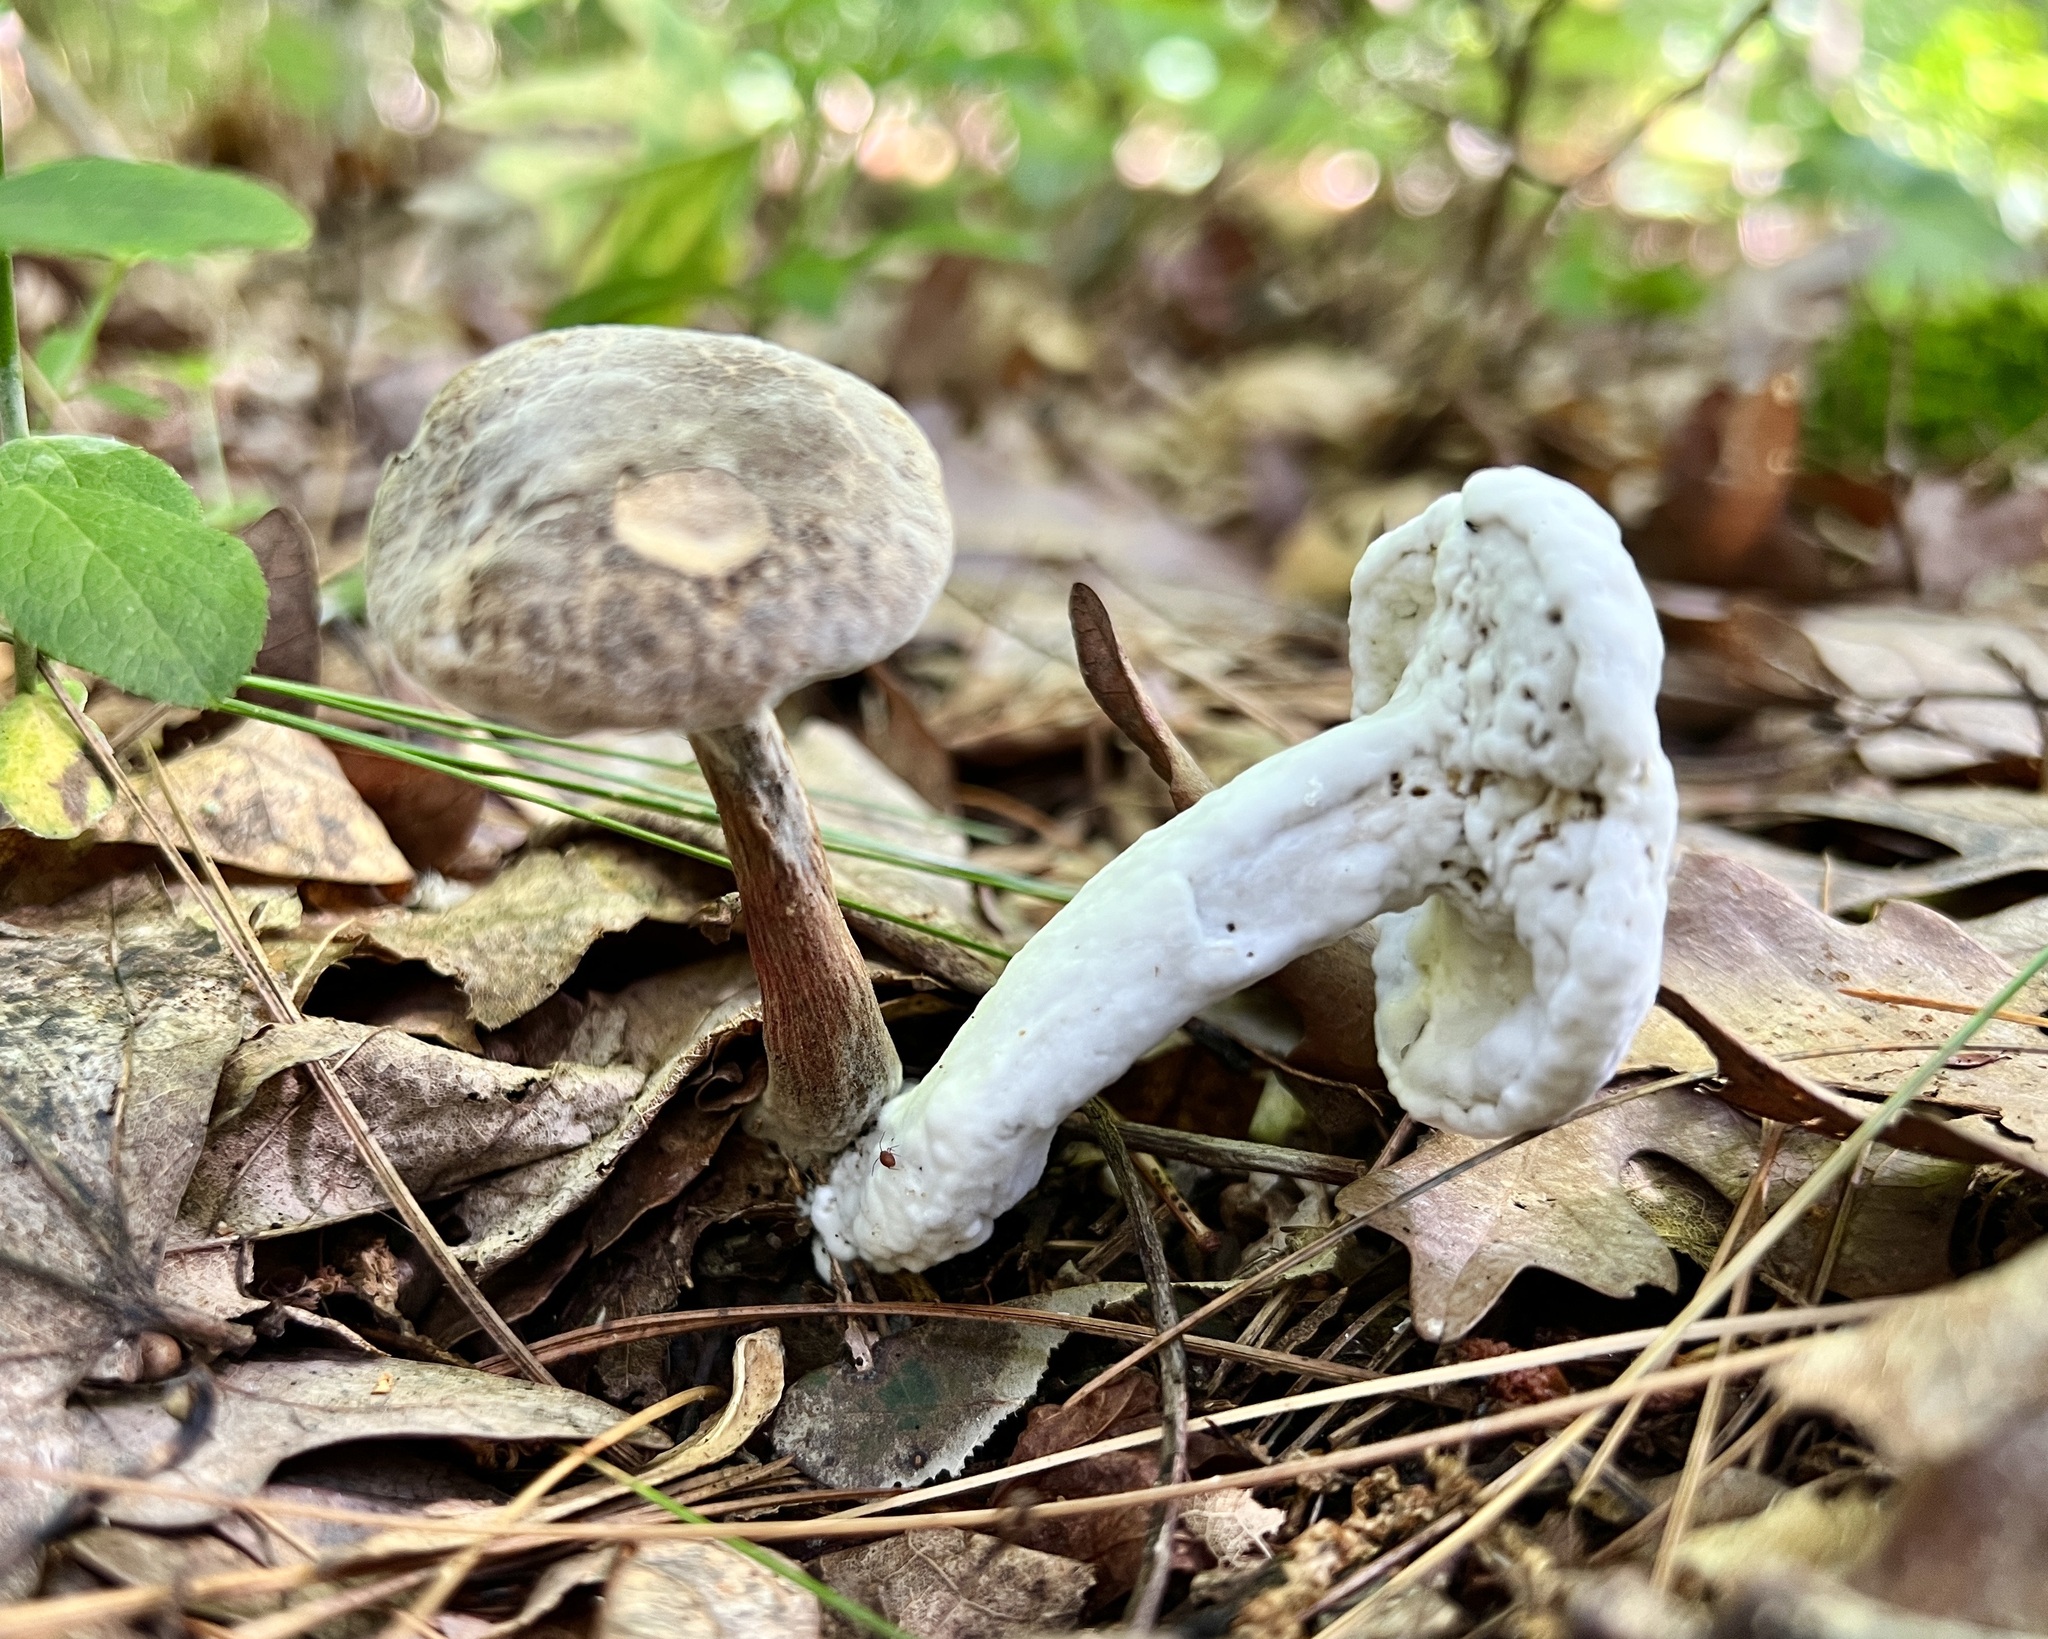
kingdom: Fungi
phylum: Ascomycota
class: Sordariomycetes
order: Hypocreales
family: Hypocreaceae
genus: Hypomyces
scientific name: Hypomyces chrysospermus
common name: Bolete mould
